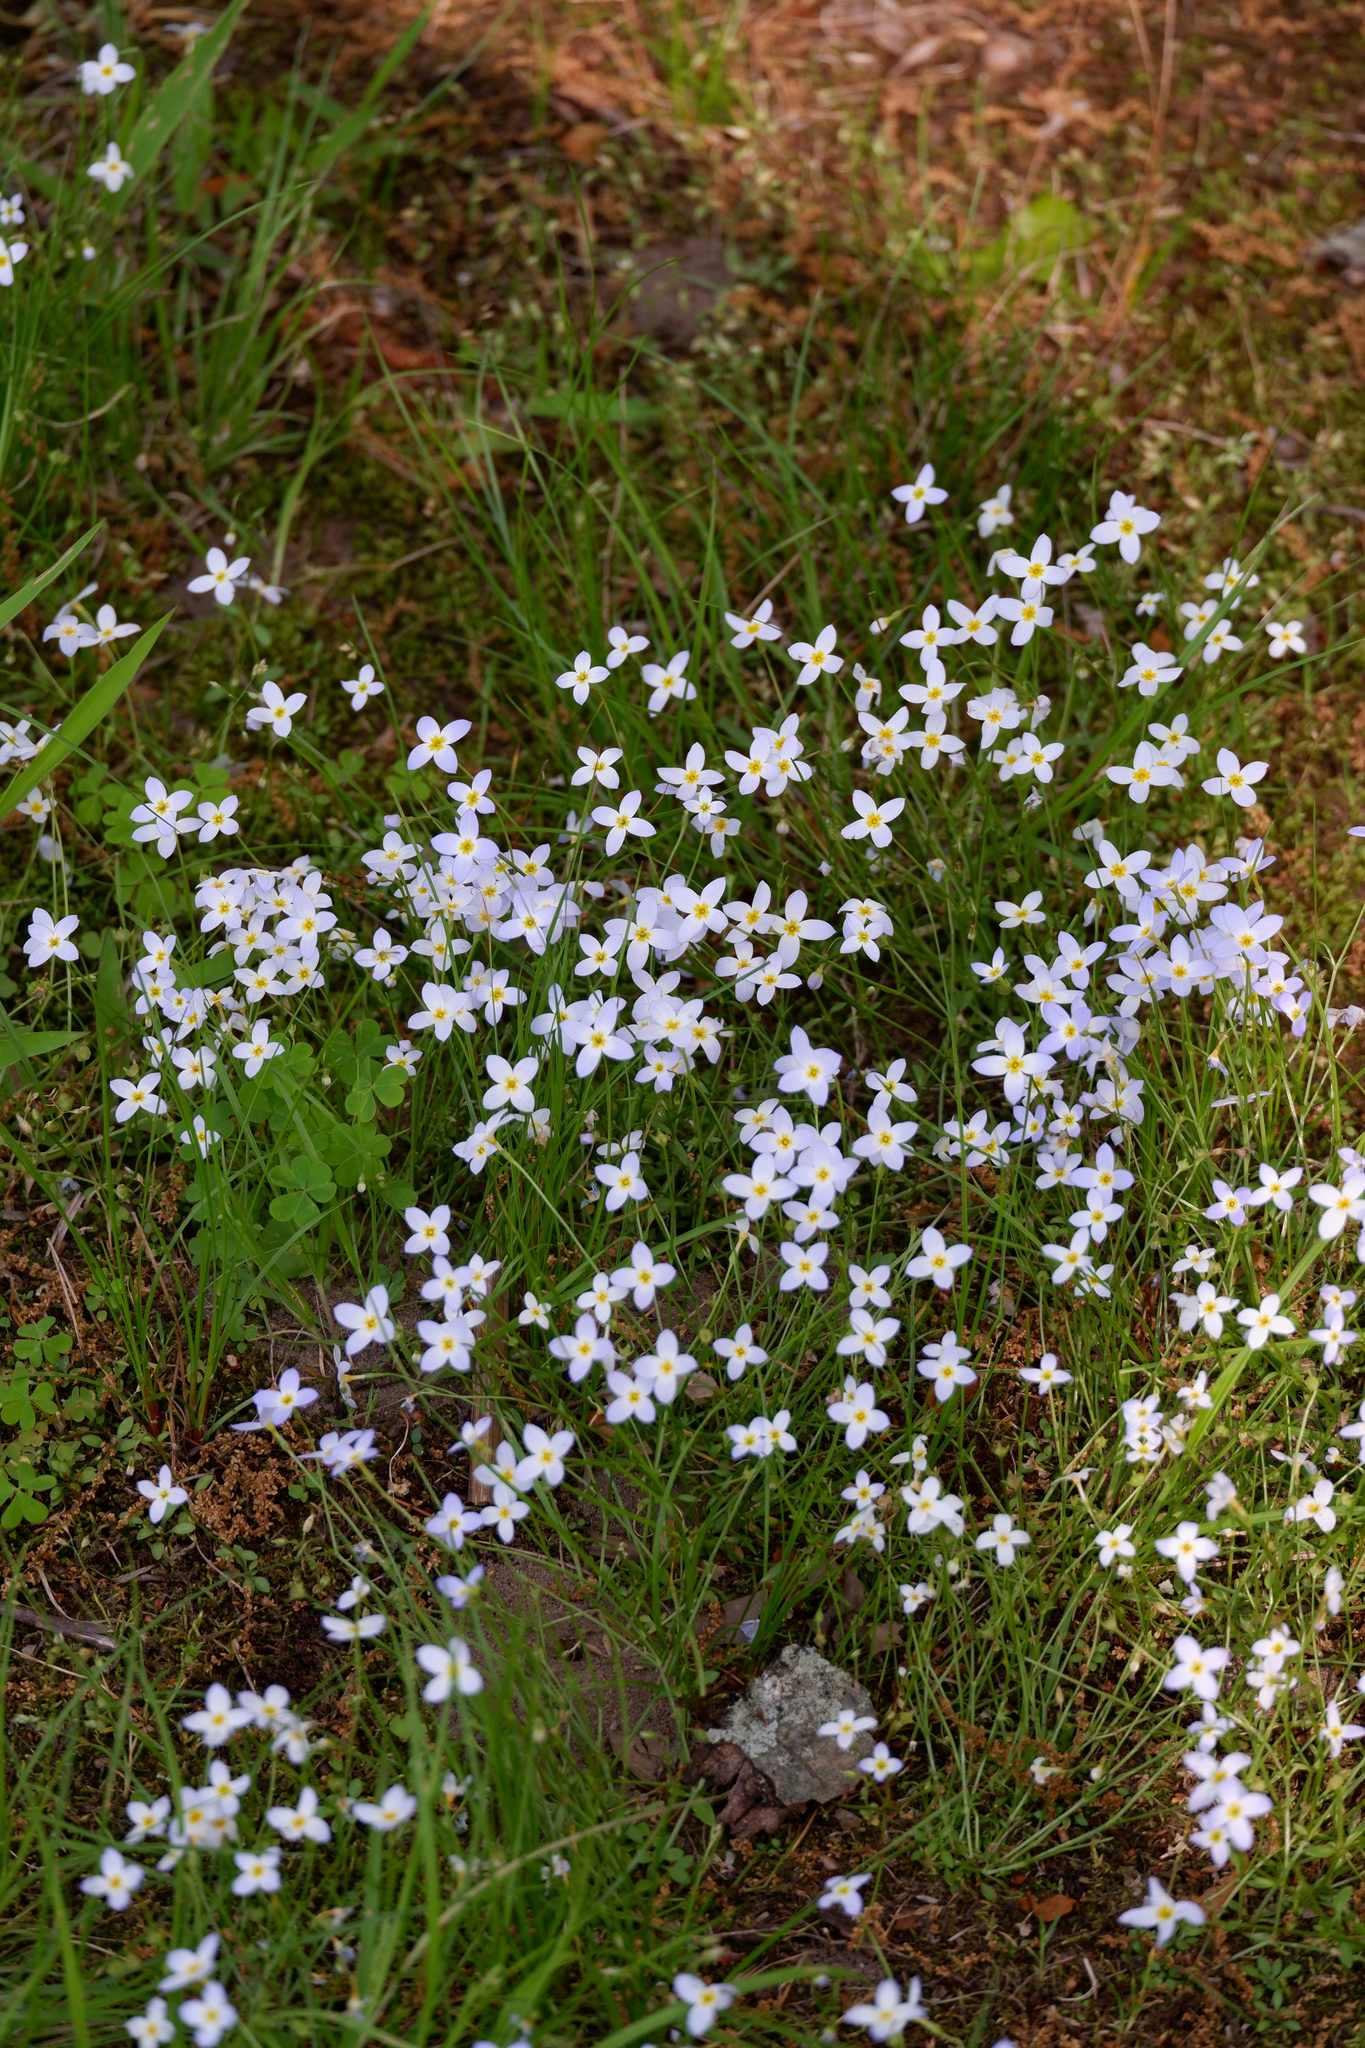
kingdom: Plantae
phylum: Tracheophyta
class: Magnoliopsida
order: Gentianales
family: Rubiaceae
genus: Houstonia
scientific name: Houstonia caerulea
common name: Bluets
